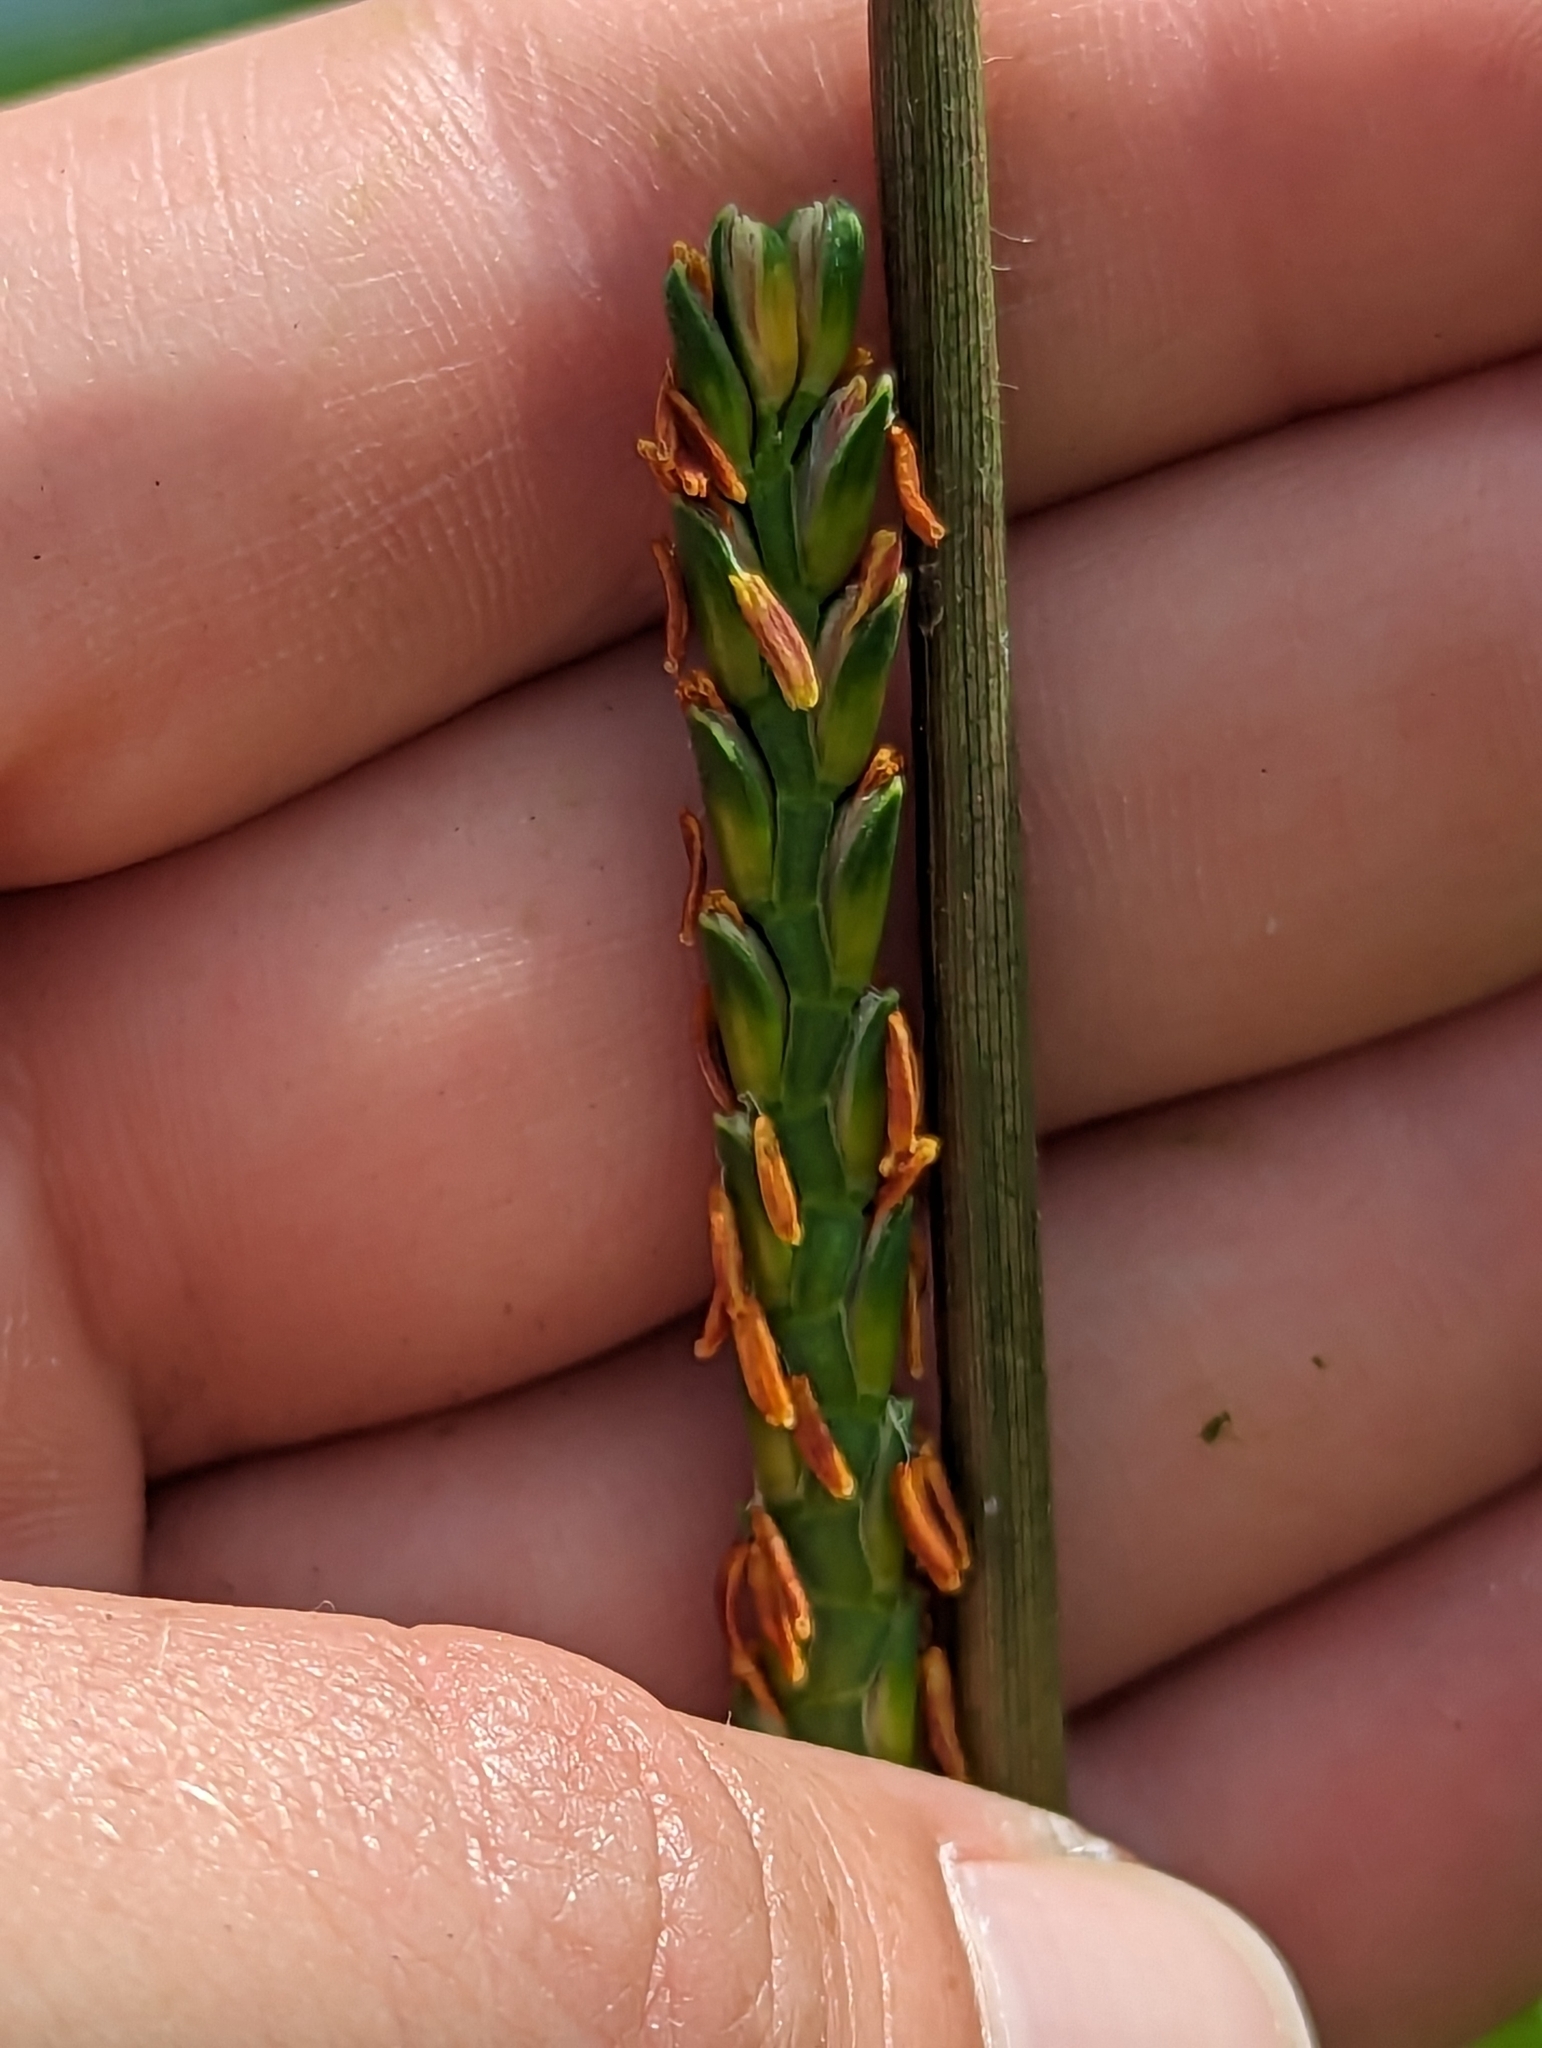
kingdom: Plantae
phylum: Tracheophyta
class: Liliopsida
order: Poales
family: Poaceae
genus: Tripsacum
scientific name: Tripsacum dactyloides
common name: Buffalo-grass
